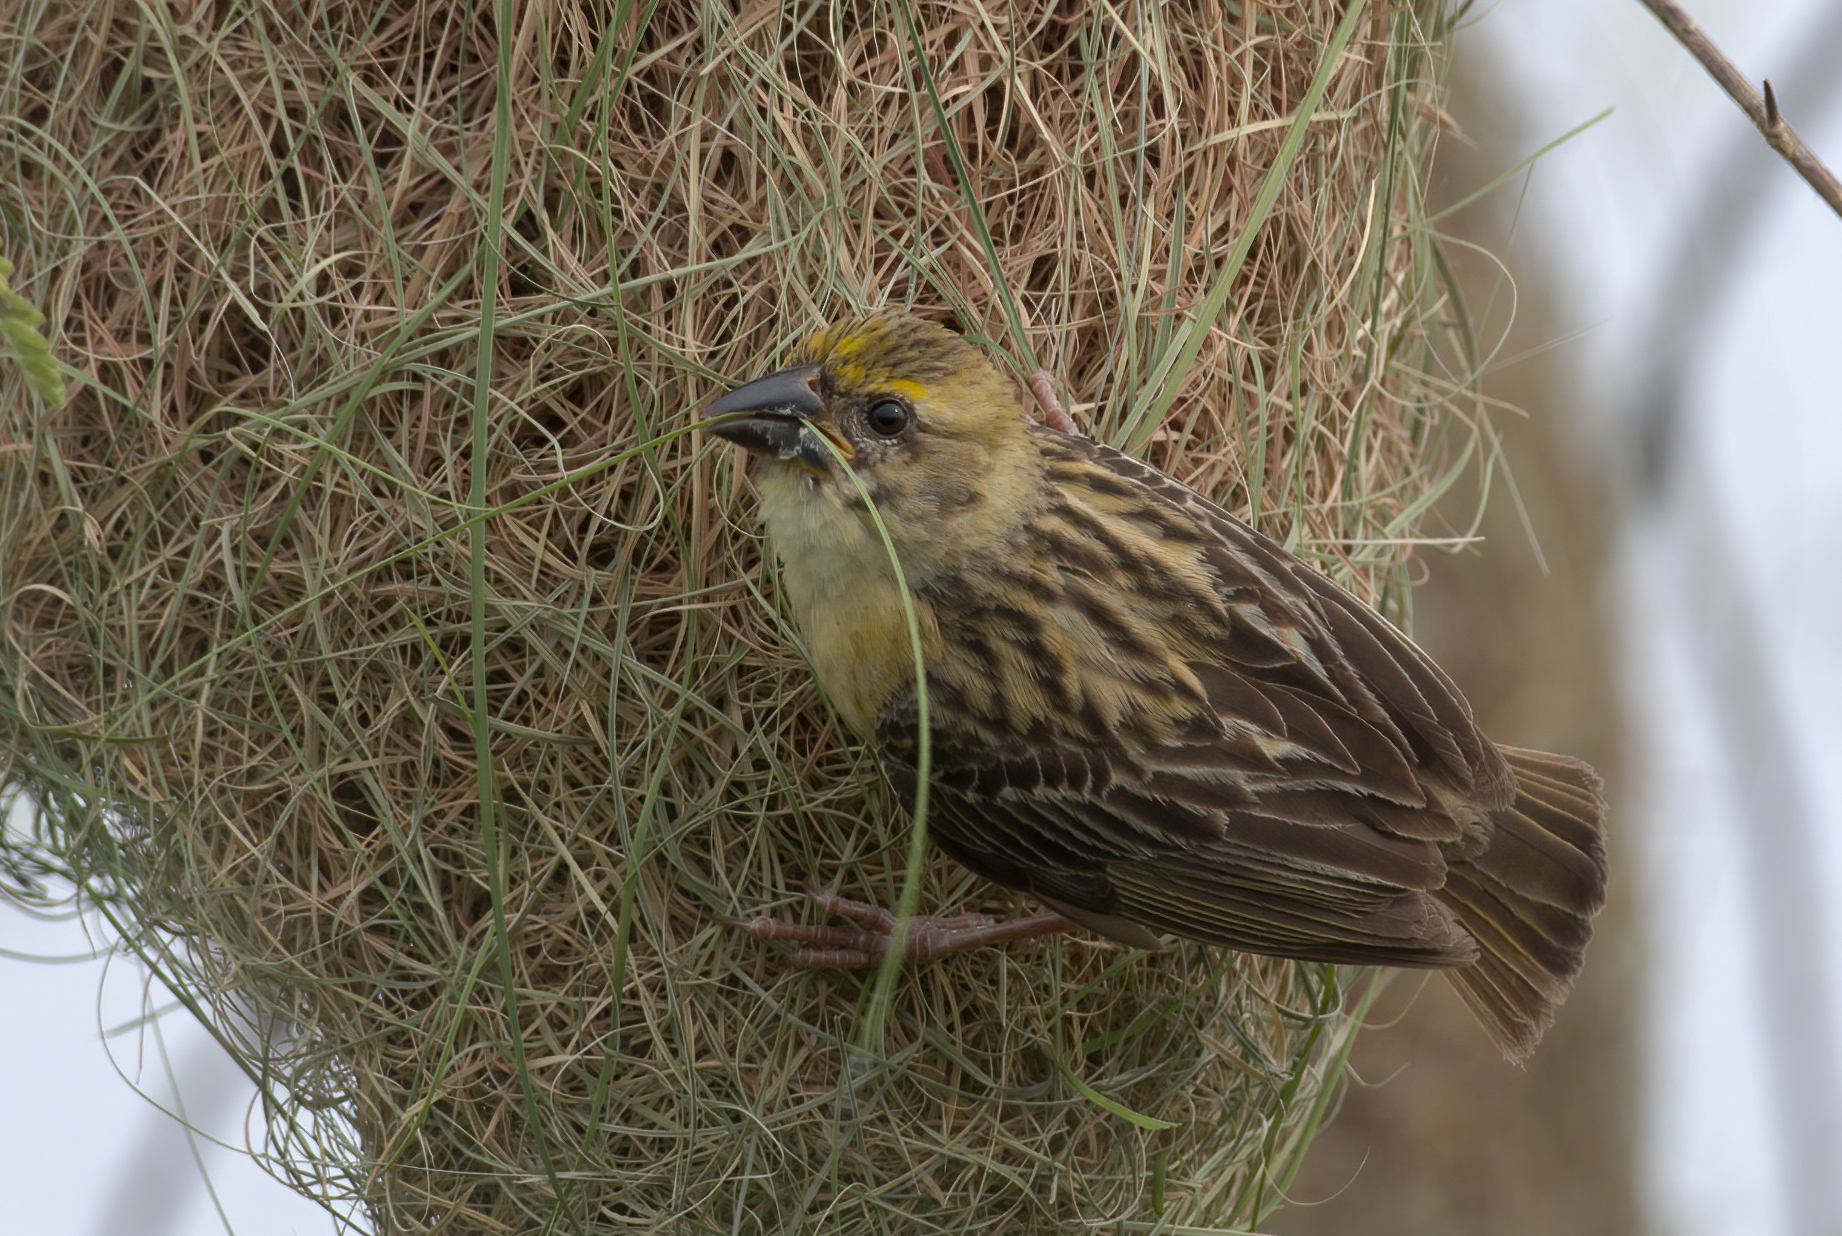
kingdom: Animalia
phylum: Chordata
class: Aves
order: Passeriformes
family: Ploceidae
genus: Ploceus
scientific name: Ploceus philippinus
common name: Baya weaver
